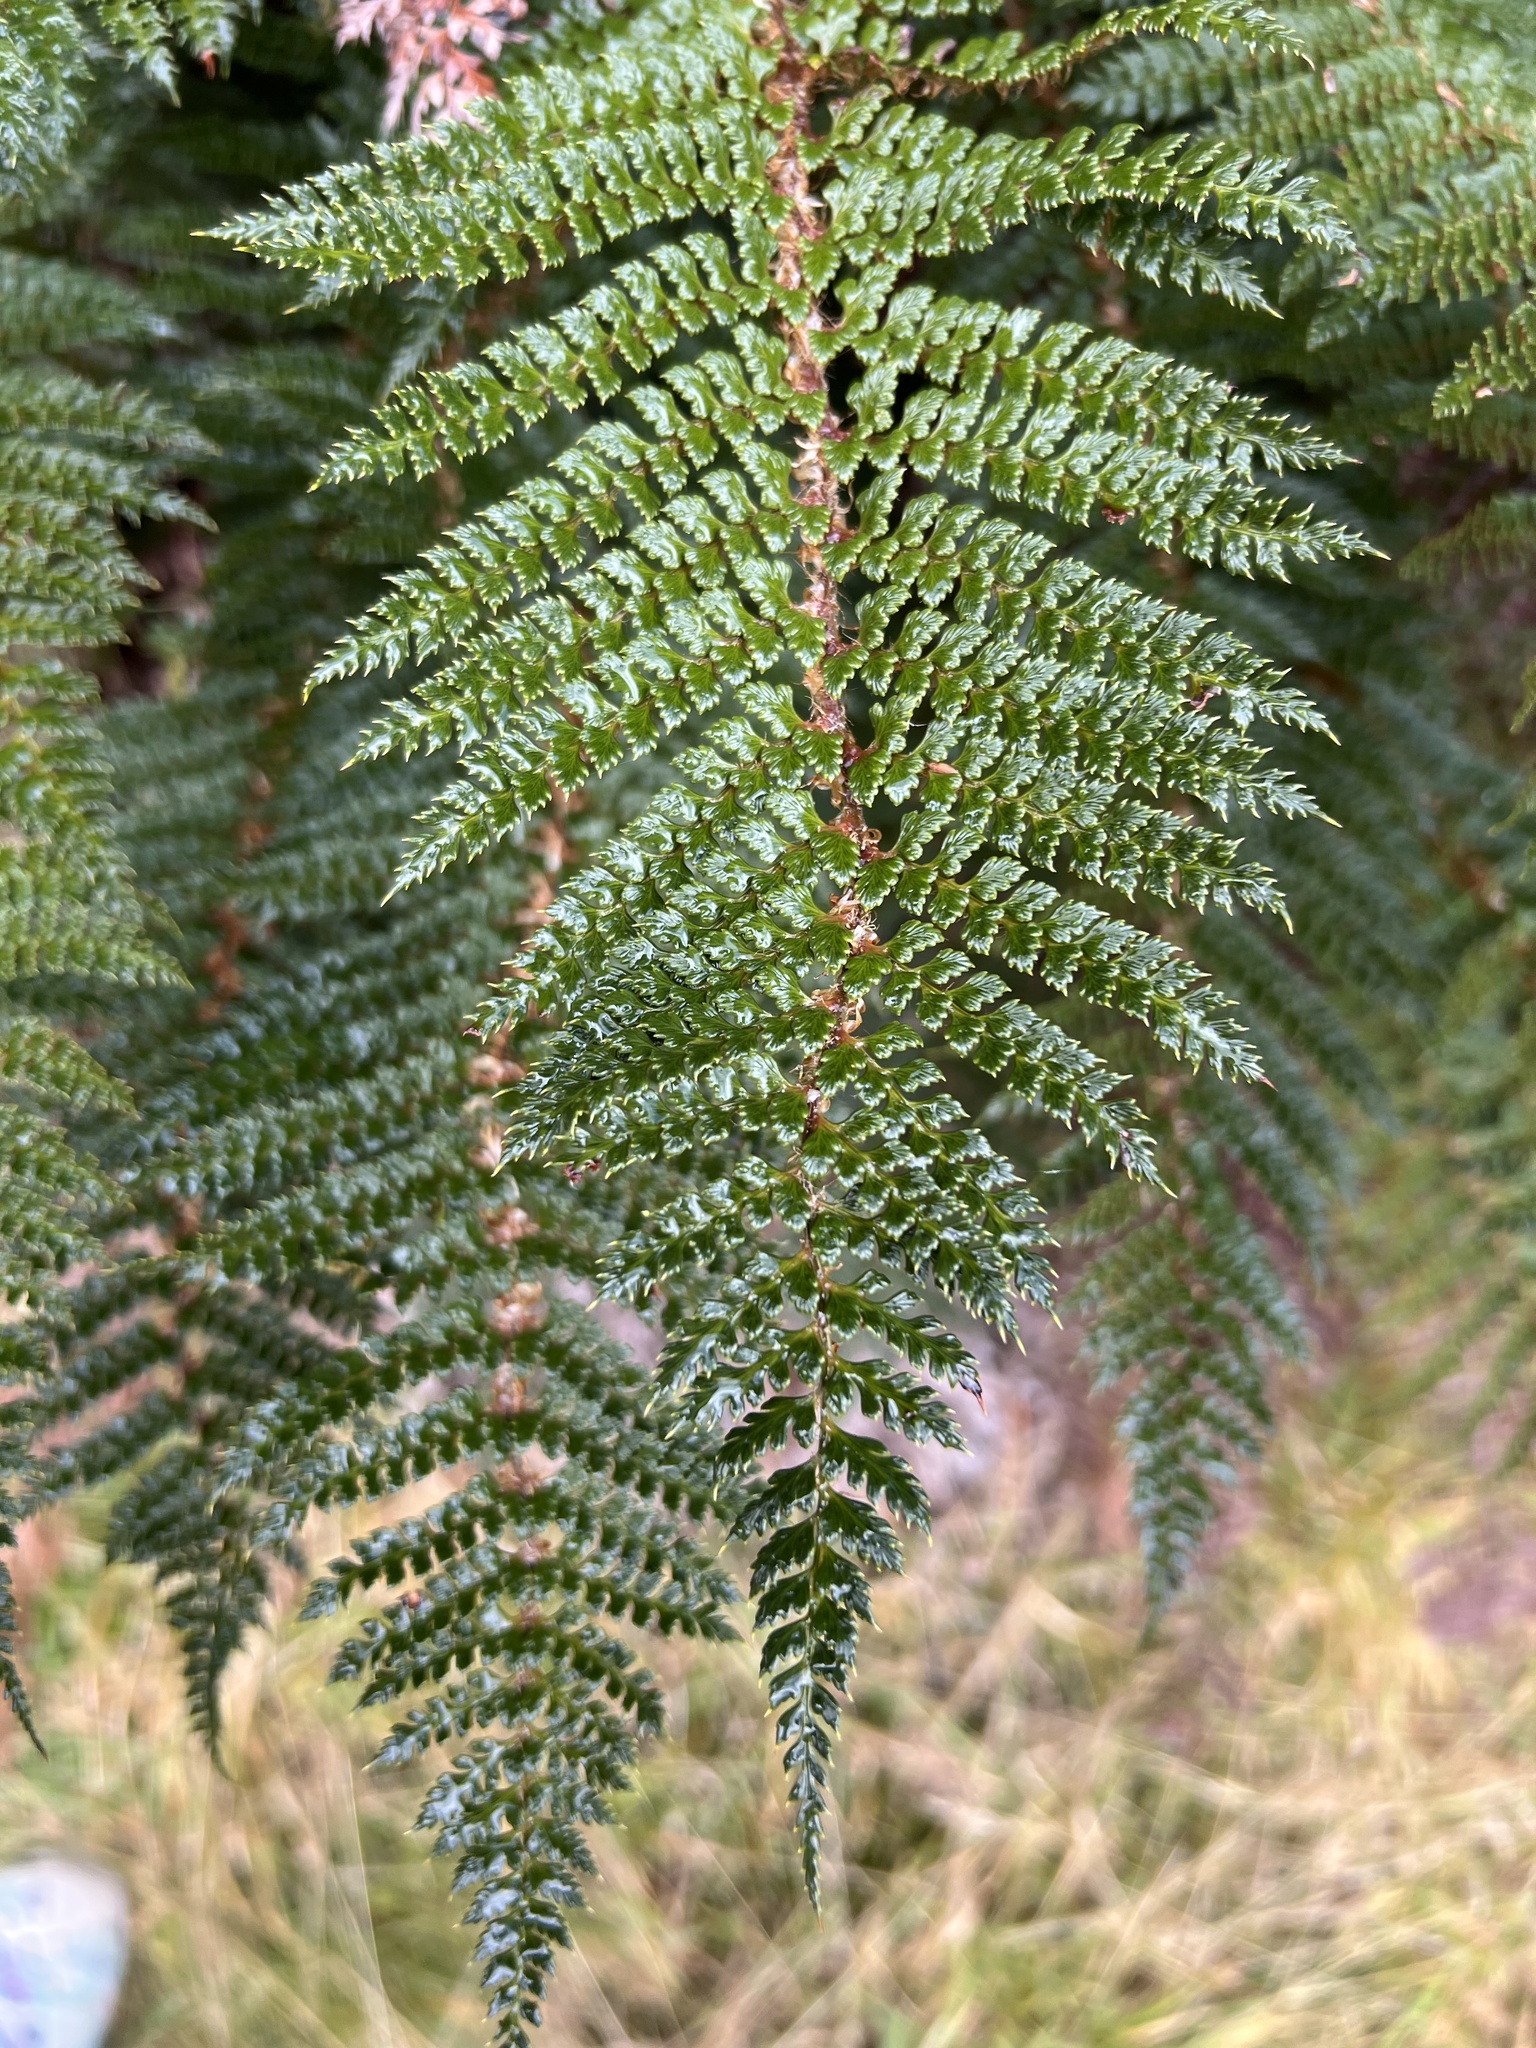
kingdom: Plantae
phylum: Tracheophyta
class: Polypodiopsida
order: Polypodiales
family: Dryopteridaceae
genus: Polystichum
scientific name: Polystichum vestitum
